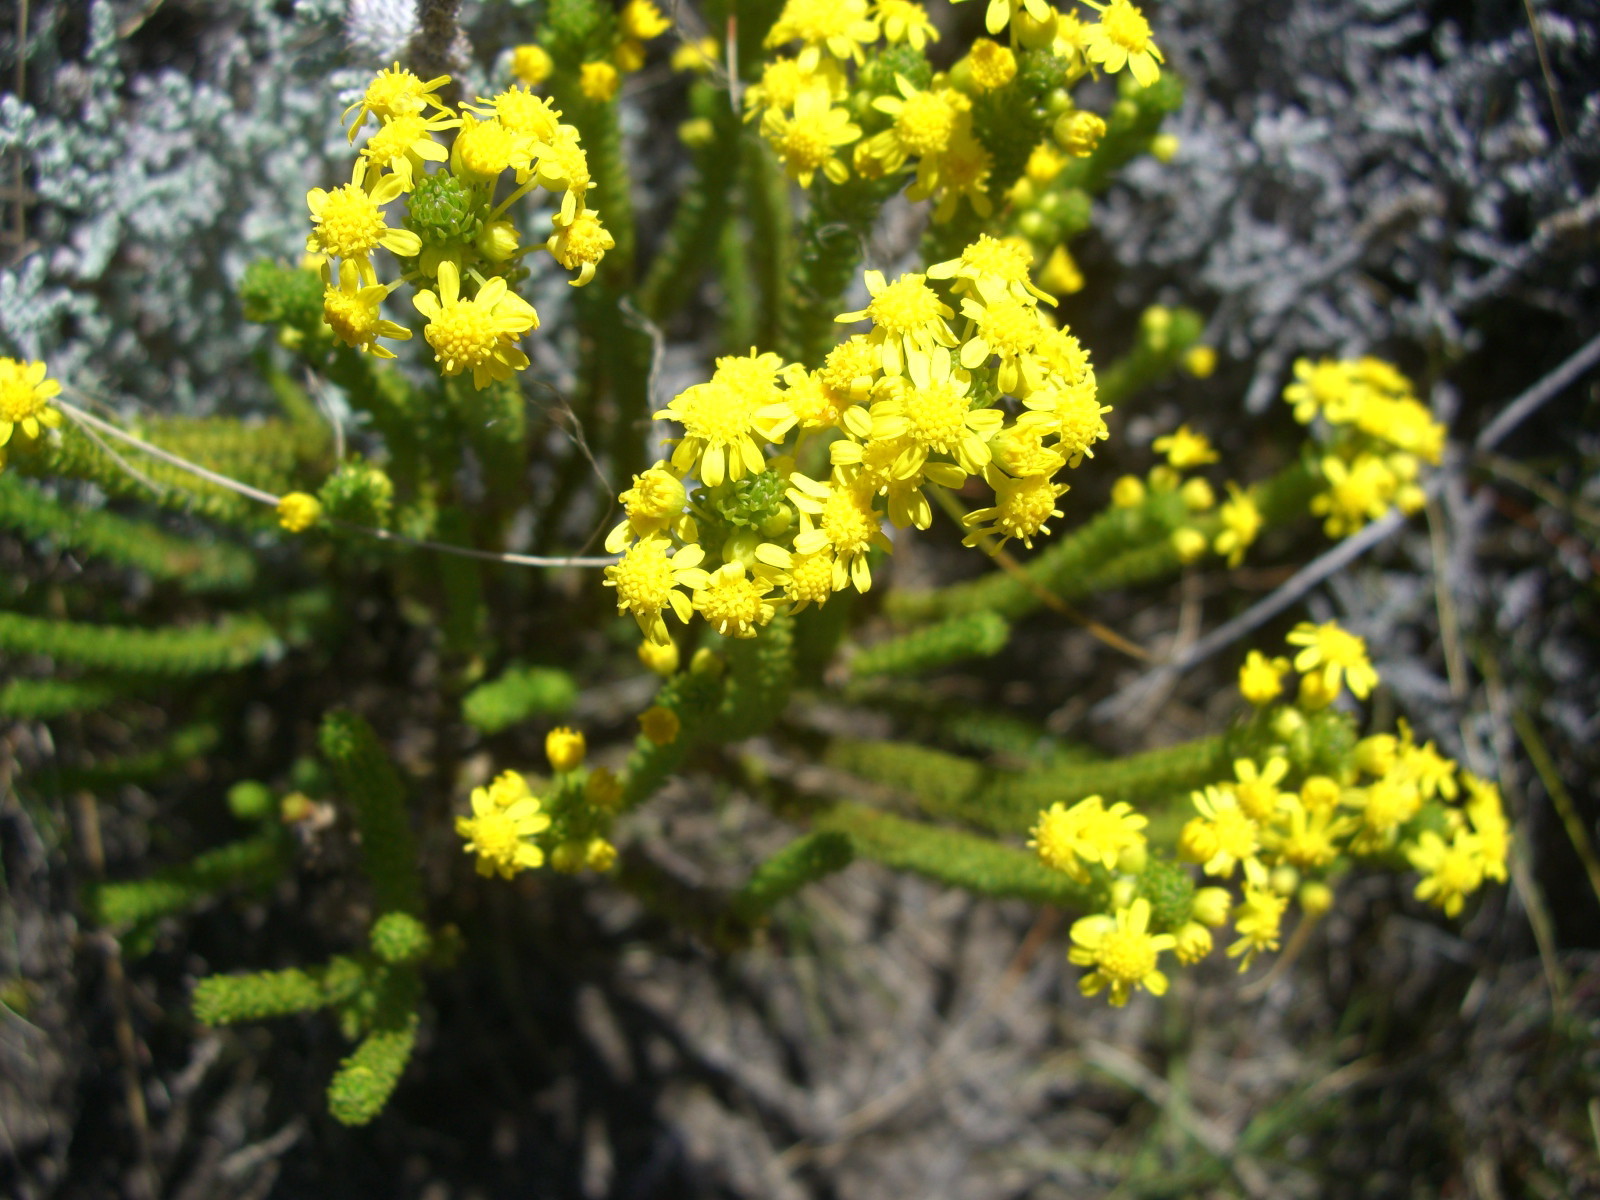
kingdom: Plantae
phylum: Tracheophyta
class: Magnoliopsida
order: Asterales
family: Asteraceae
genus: Euryops
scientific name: Euryops virgineus
